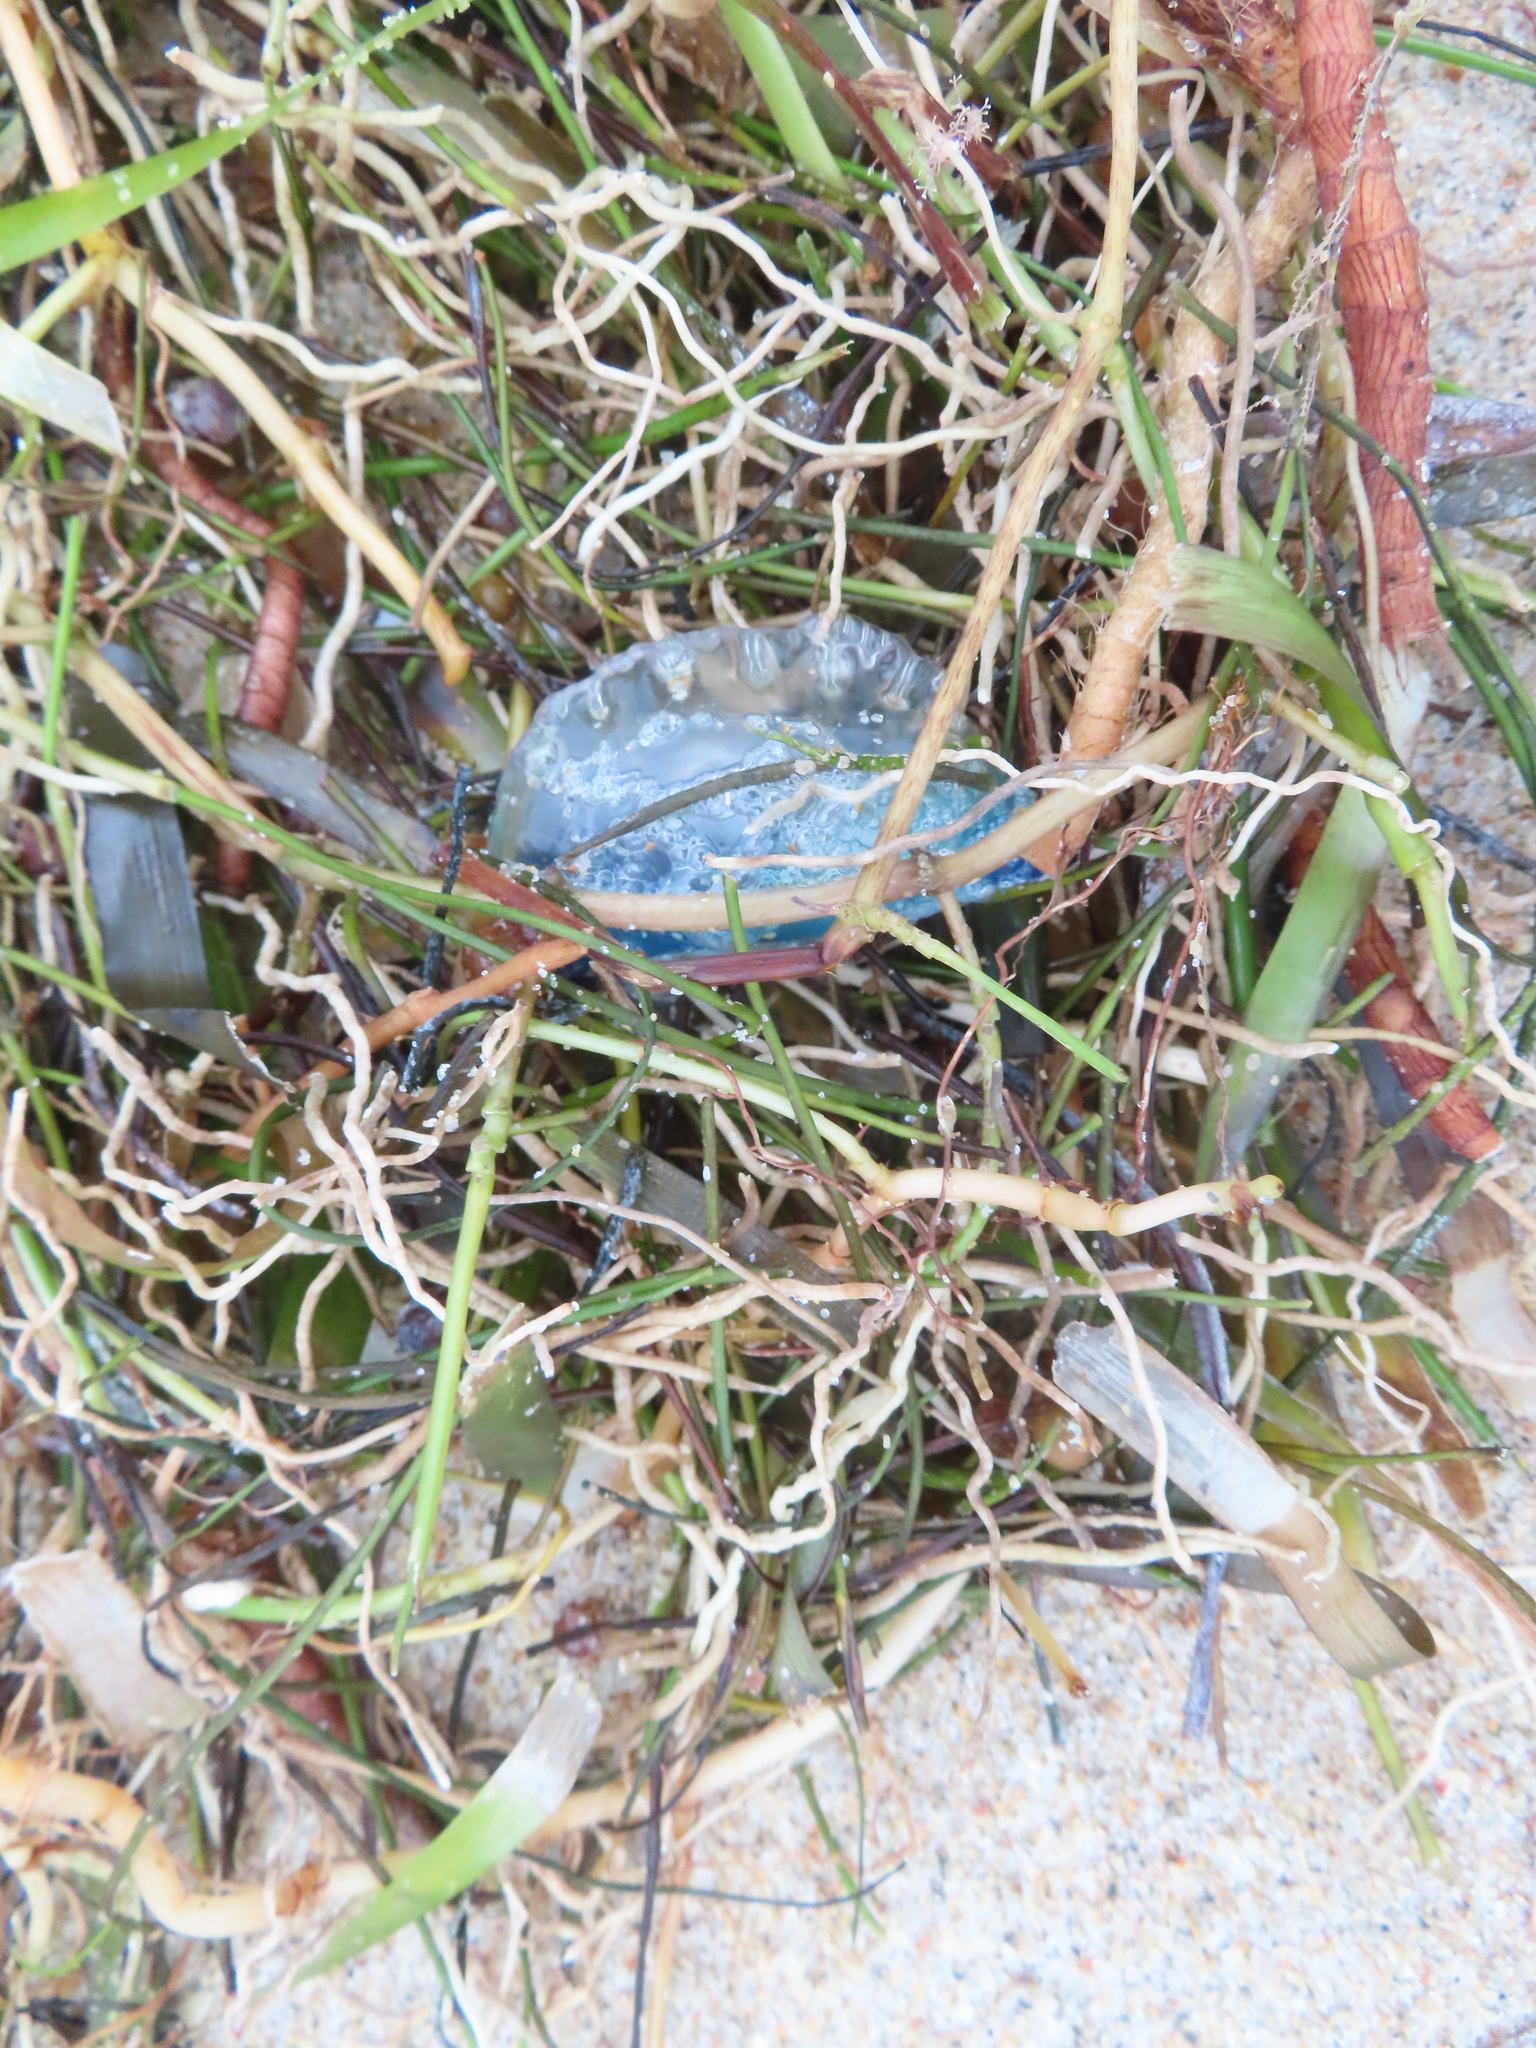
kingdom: Animalia
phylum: Cnidaria
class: Hydrozoa
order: Siphonophorae
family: Physaliidae
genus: Physalia
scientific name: Physalia physalis
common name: Portuguese man-of-war
